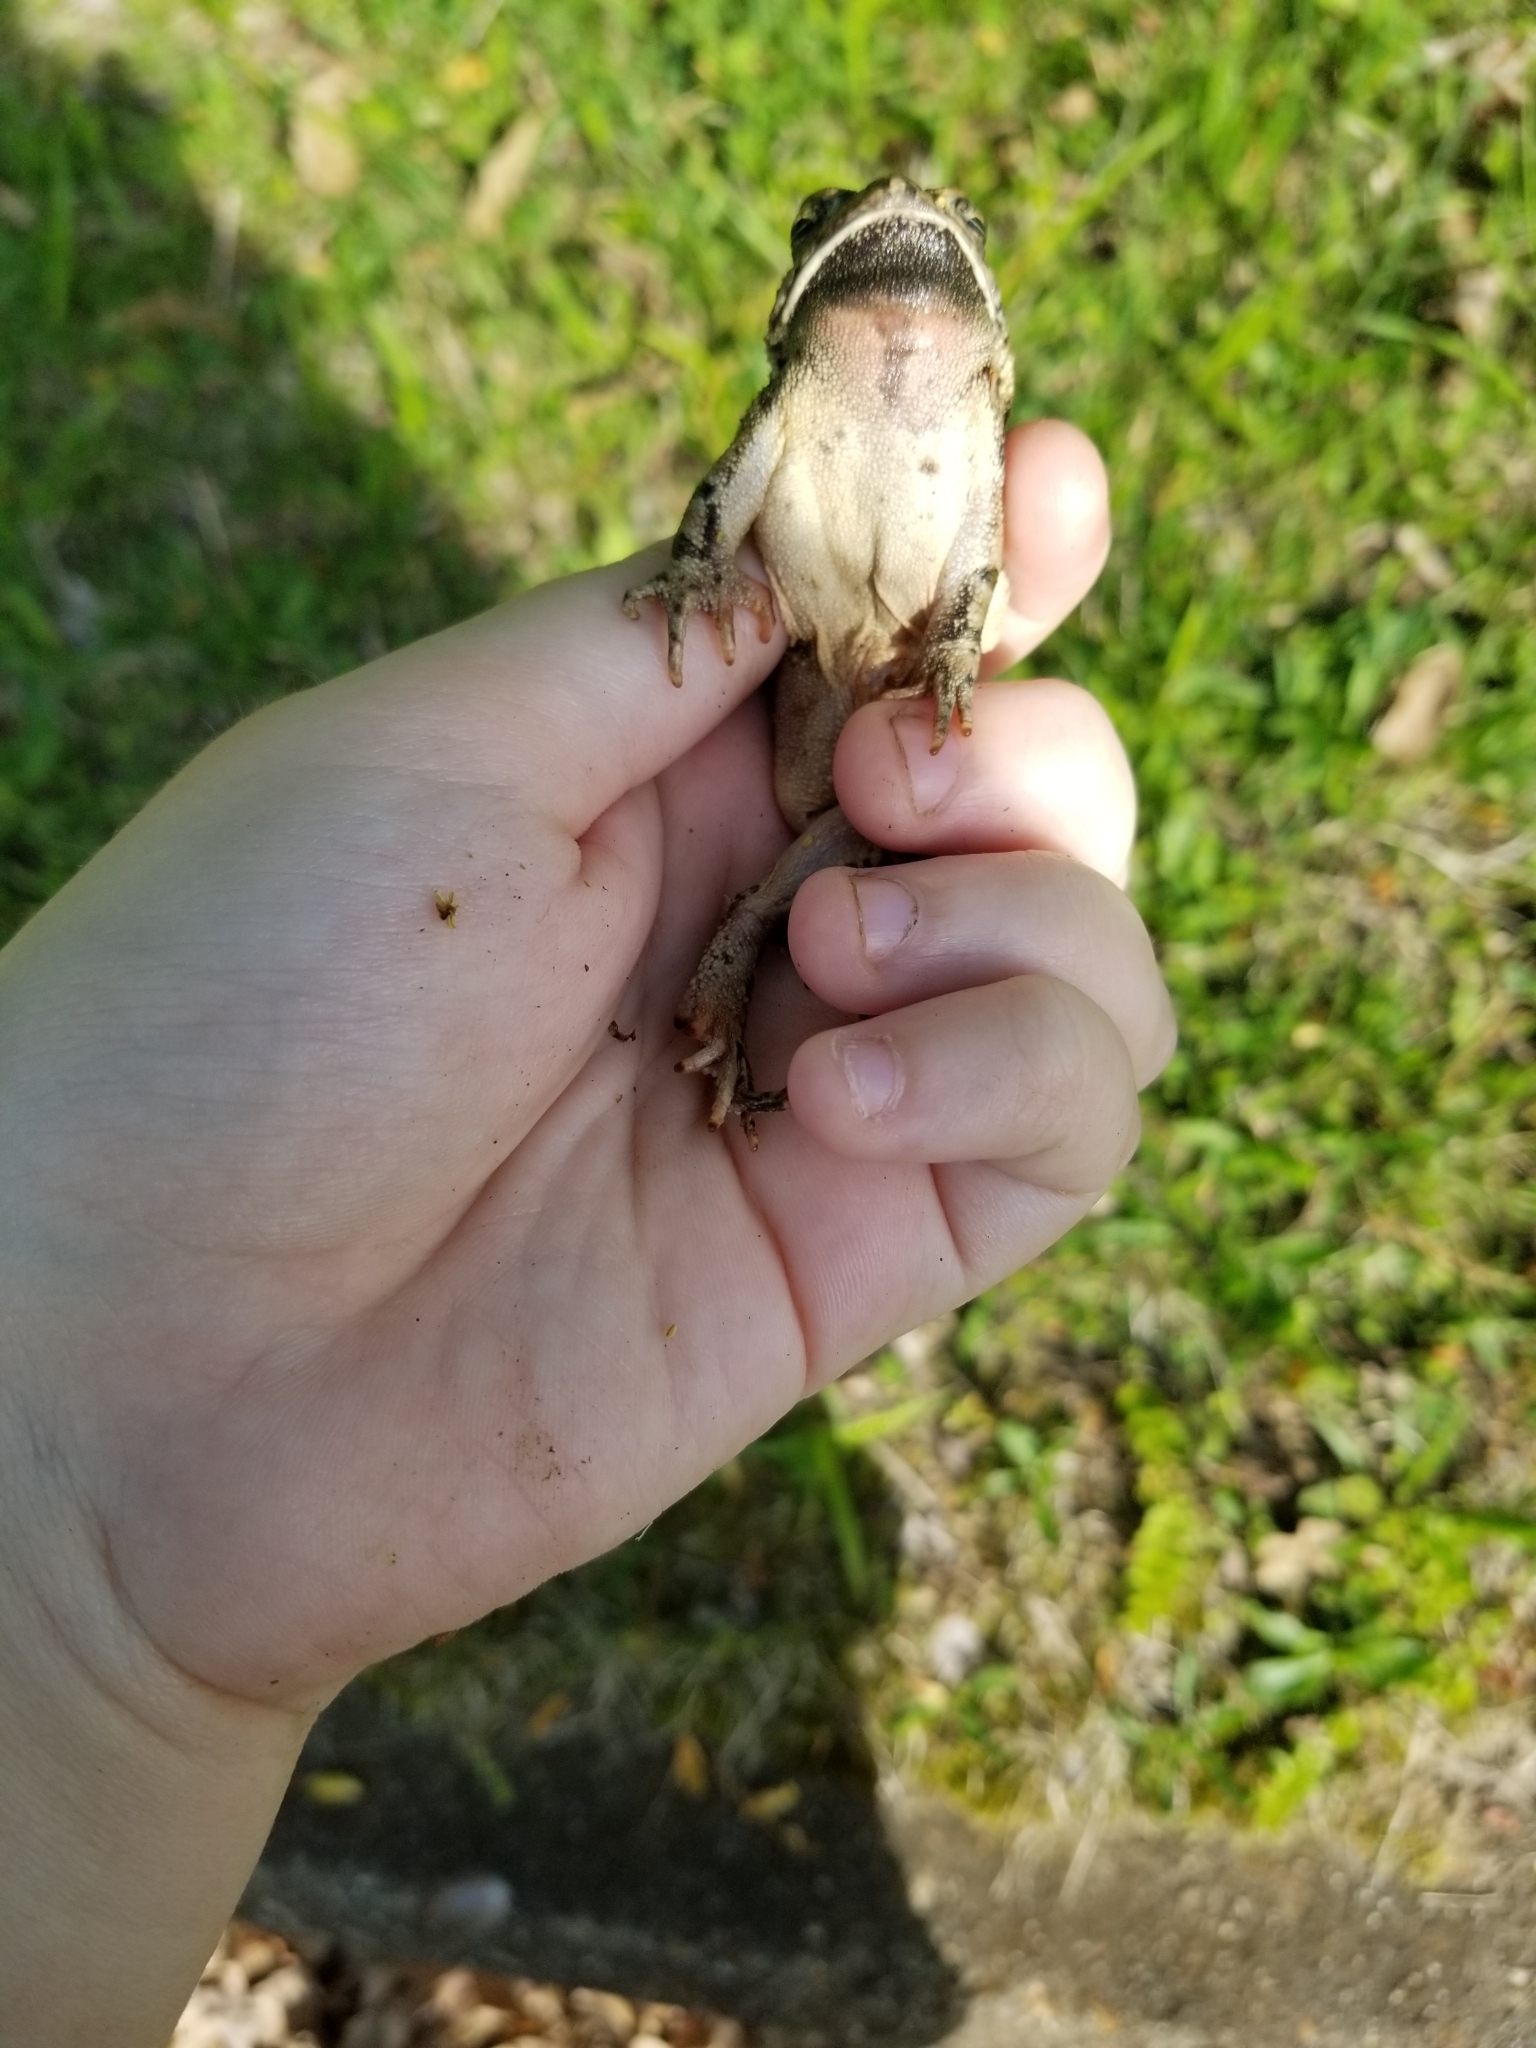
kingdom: Animalia
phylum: Chordata
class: Amphibia
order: Anura
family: Bufonidae
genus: Anaxyrus
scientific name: Anaxyrus fowleri
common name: Fowler's toad
